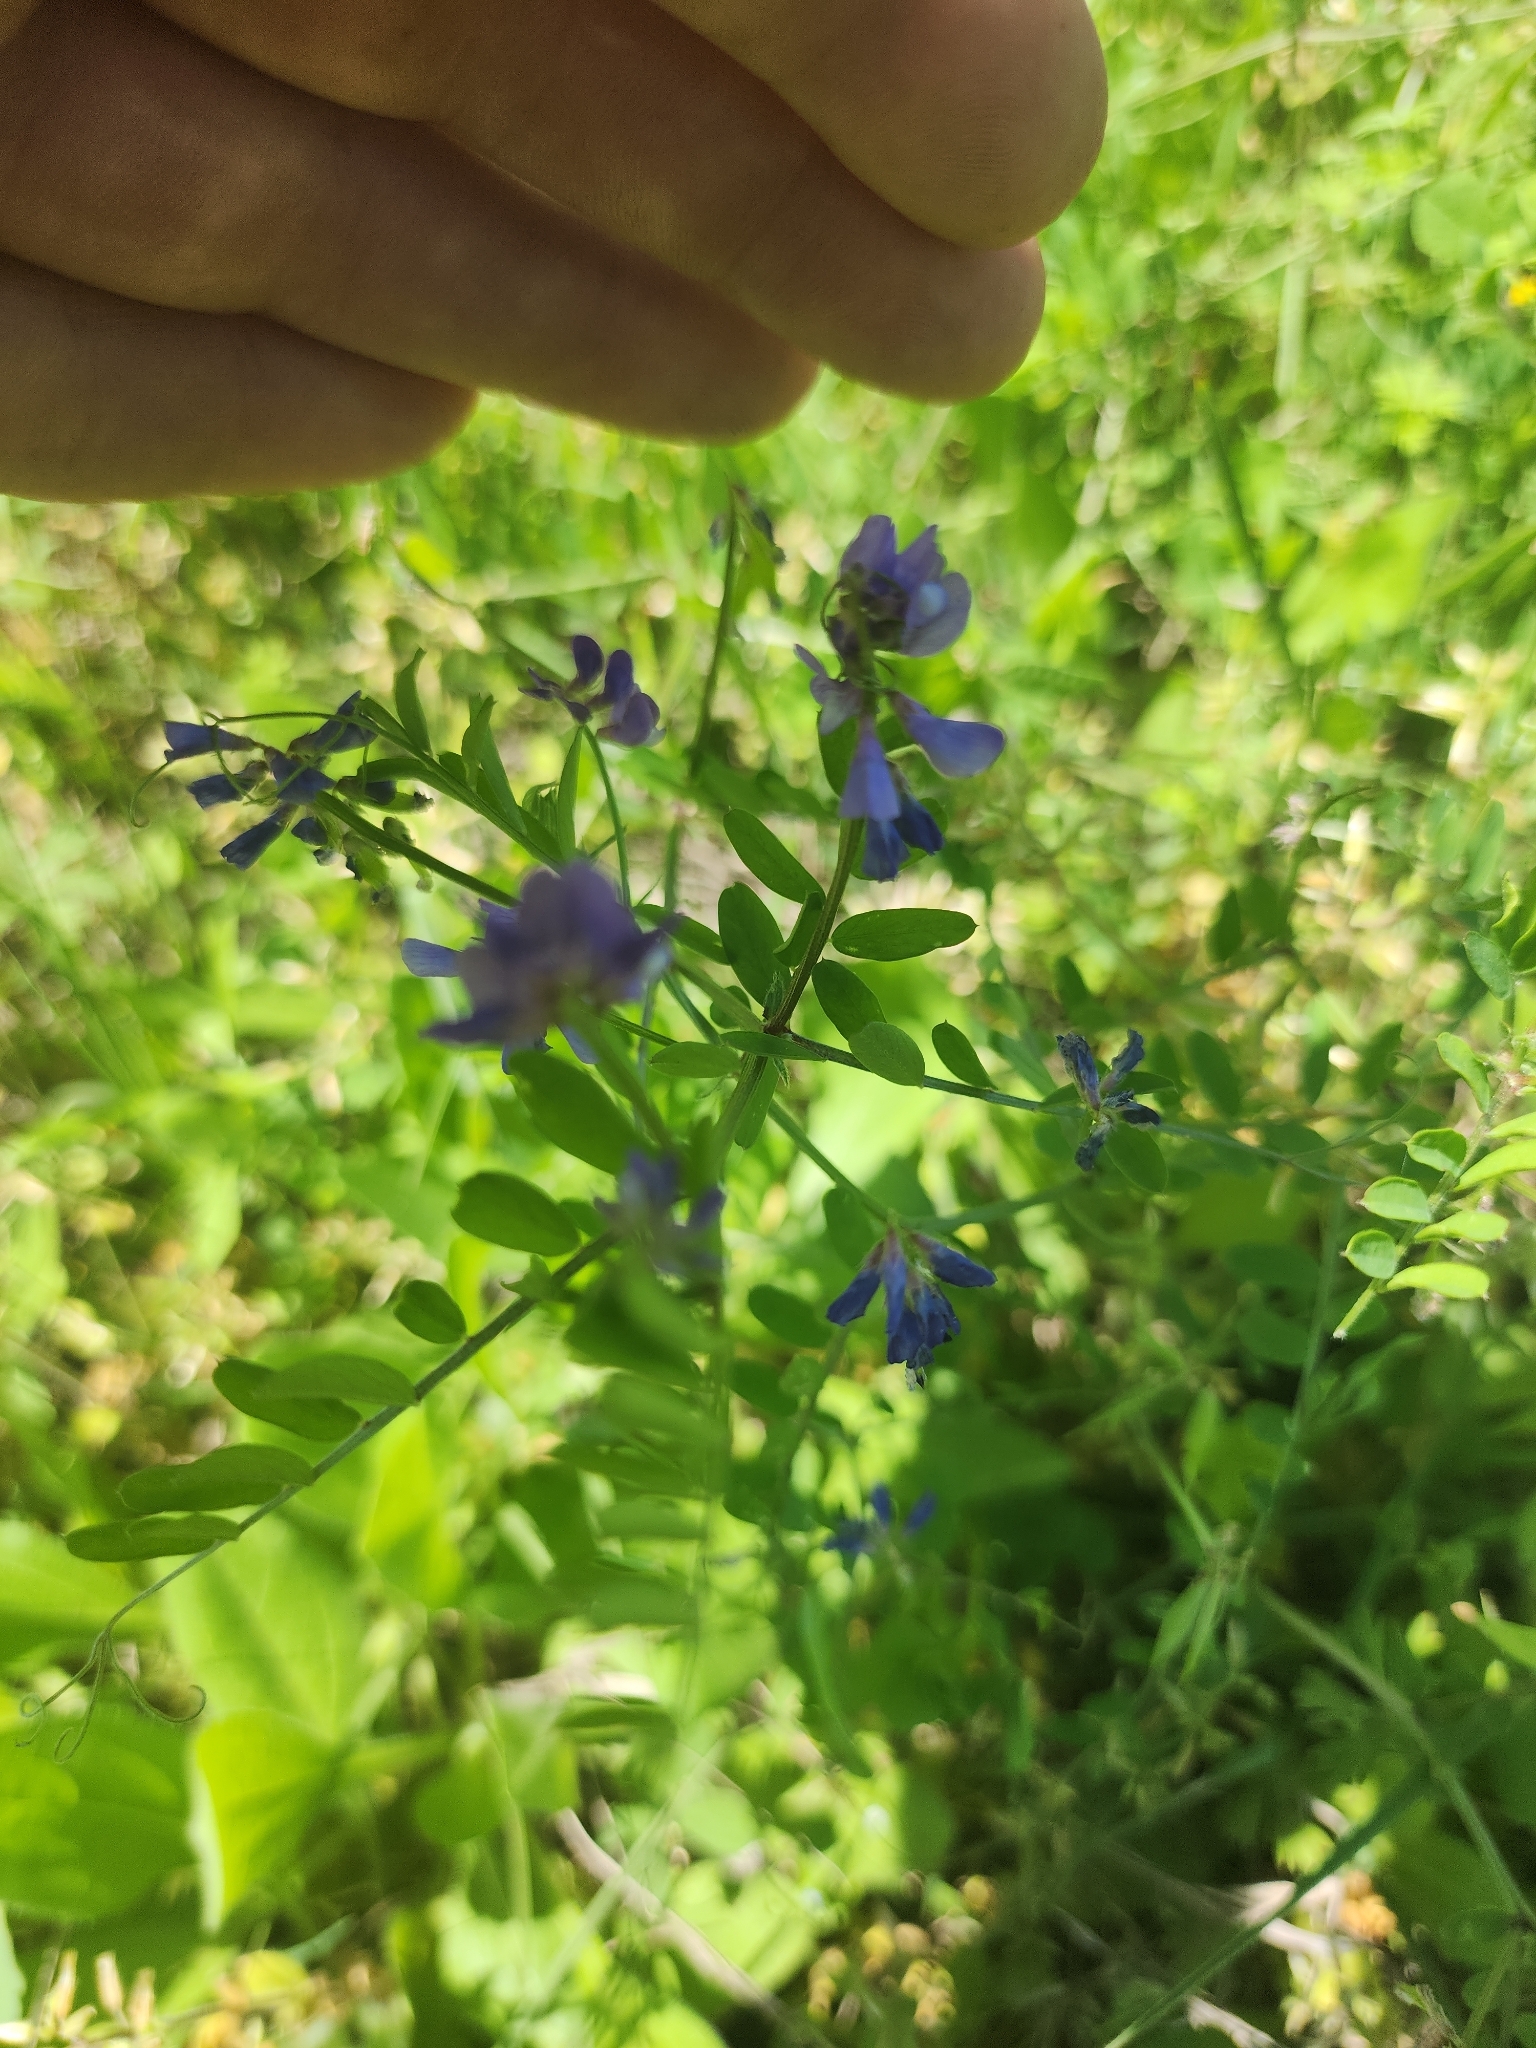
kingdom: Plantae
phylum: Tracheophyta
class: Magnoliopsida
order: Fabales
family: Fabaceae
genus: Vicia
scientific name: Vicia ludoviciana
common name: Louisiana vetch
